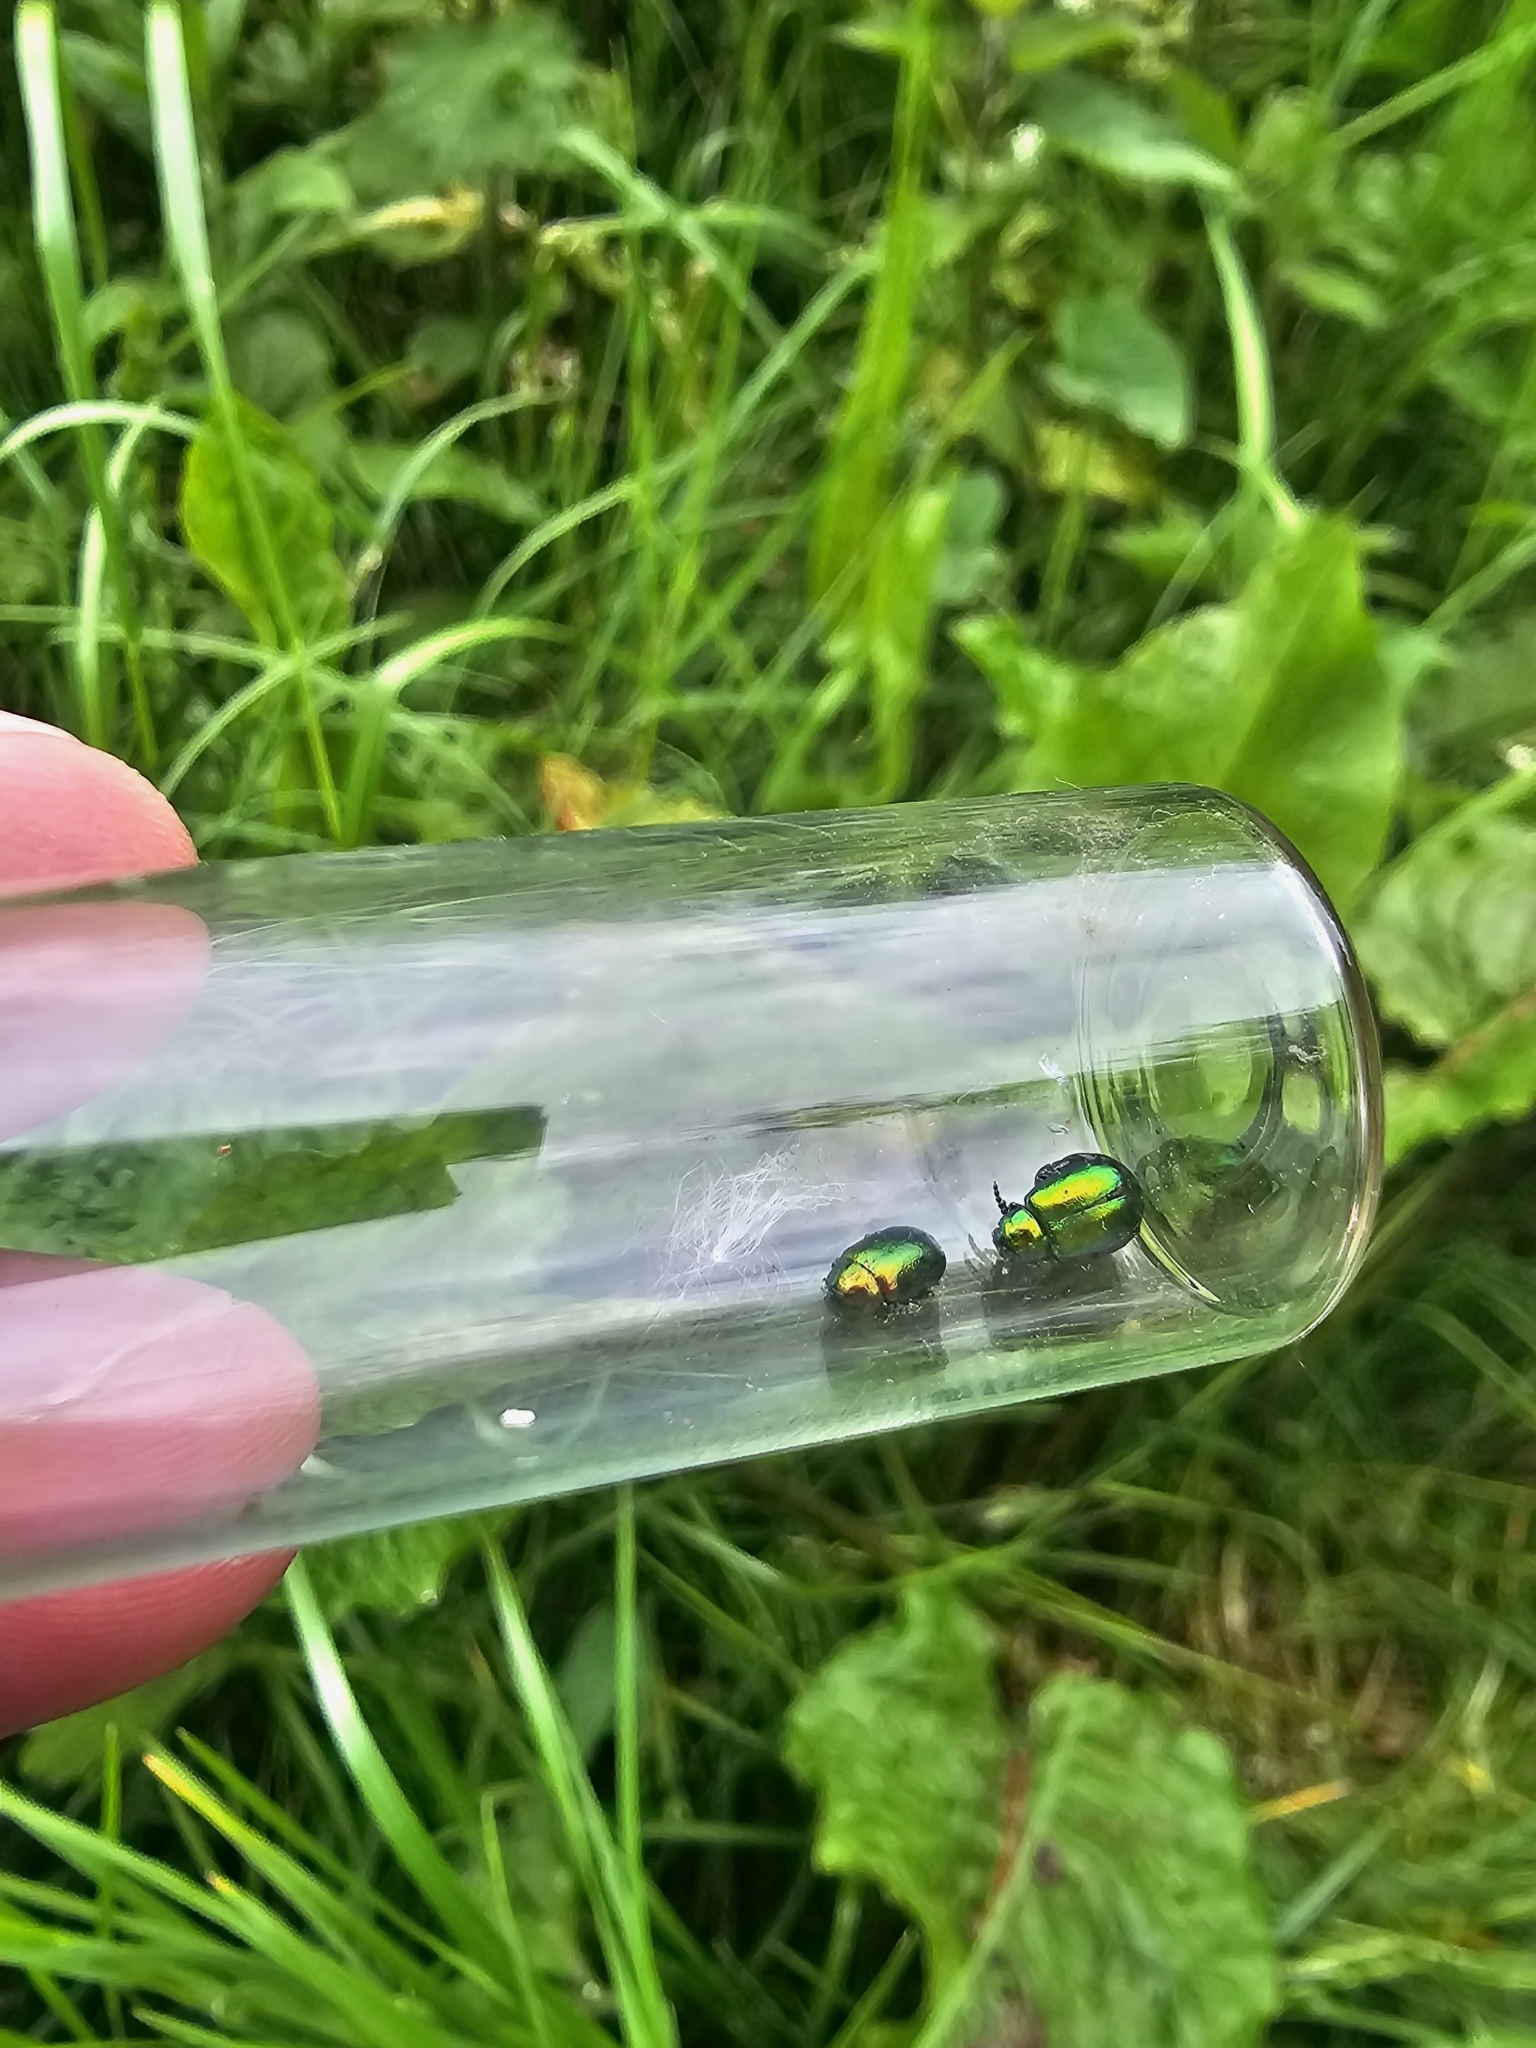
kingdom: Animalia
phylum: Arthropoda
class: Insecta
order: Coleoptera
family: Chrysomelidae
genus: Gastrophysa
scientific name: Gastrophysa viridula
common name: Green dock beetle
